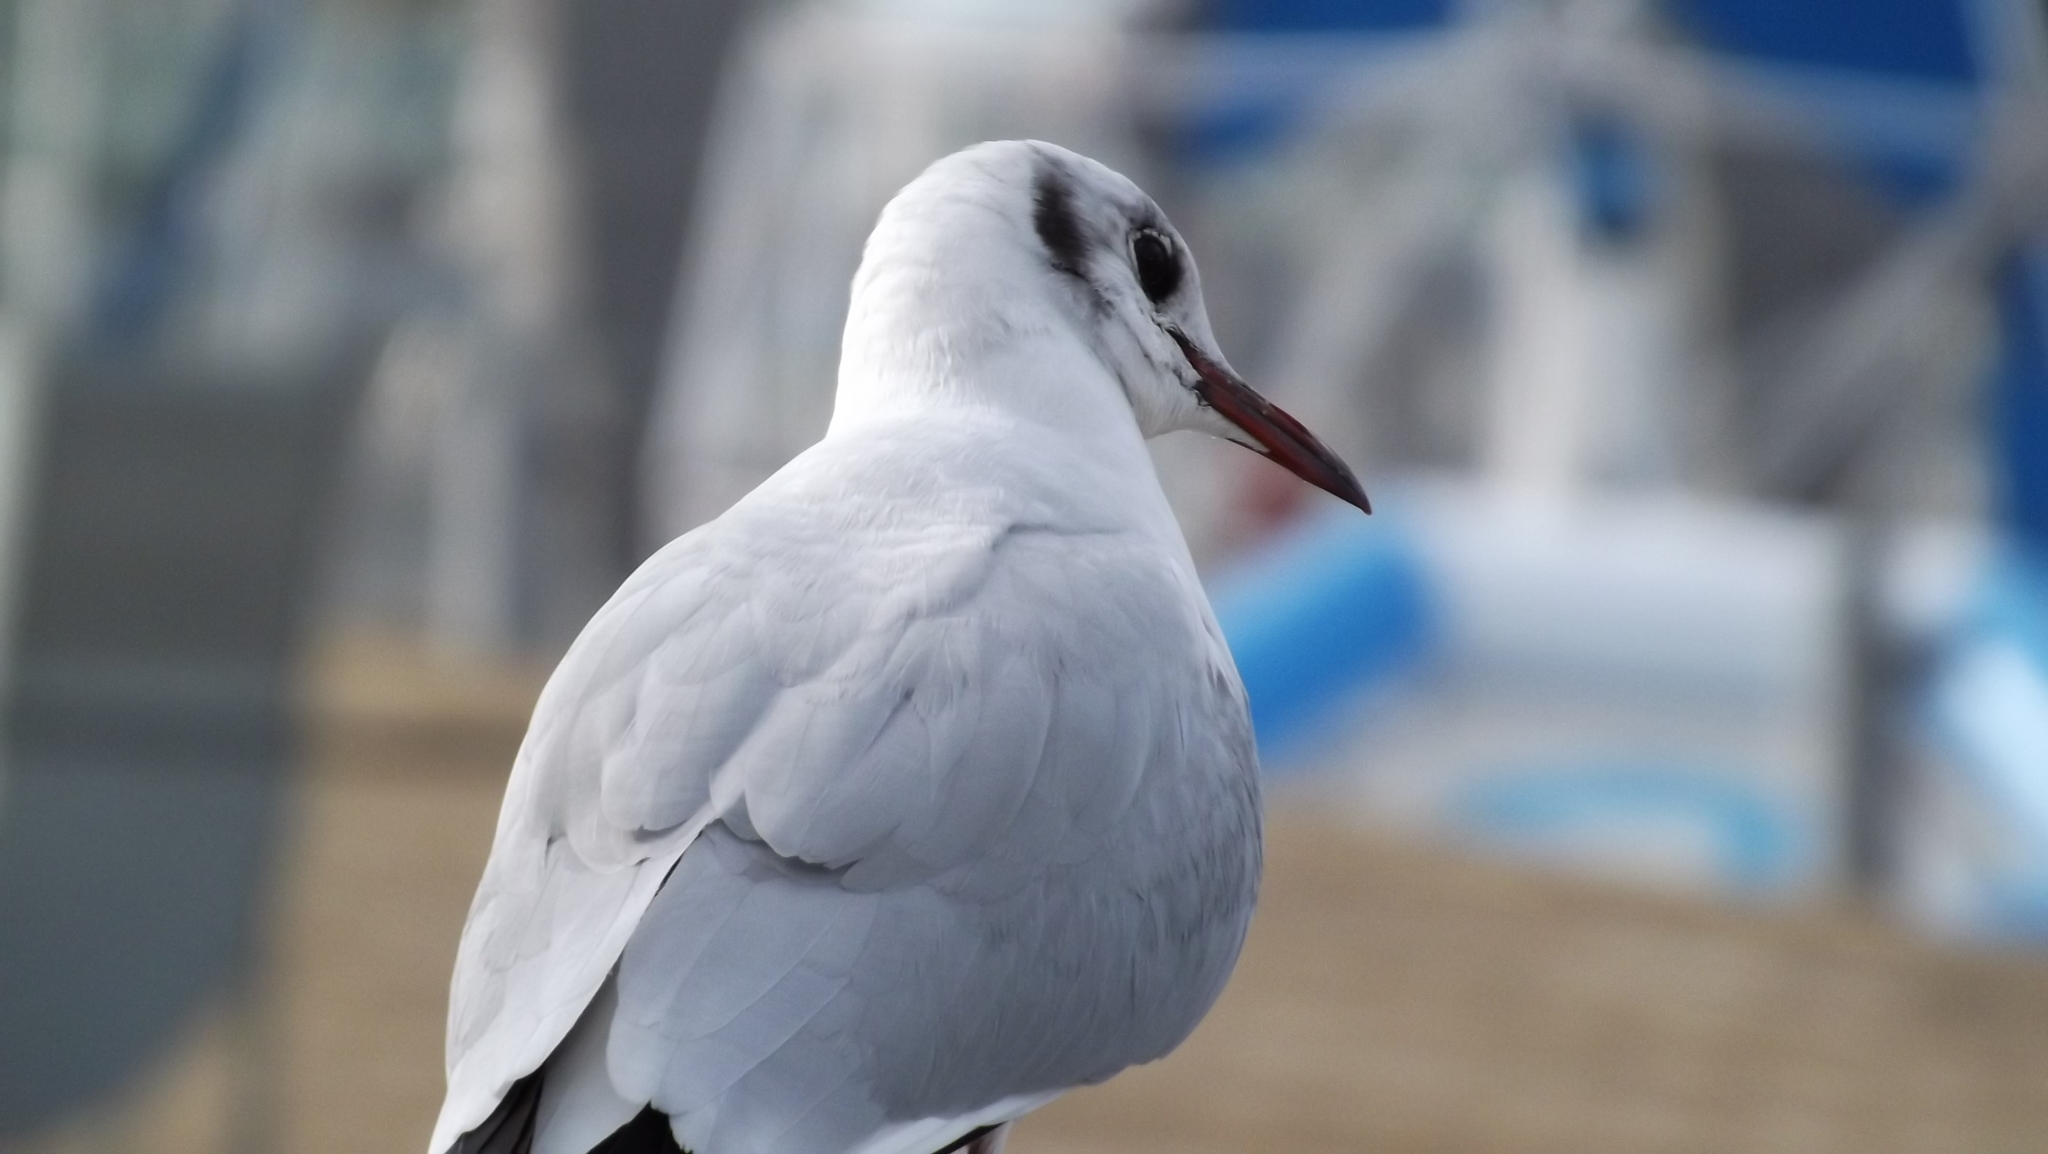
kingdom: Animalia
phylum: Chordata
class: Aves
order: Charadriiformes
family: Laridae
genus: Chroicocephalus
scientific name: Chroicocephalus ridibundus
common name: Black-headed gull
